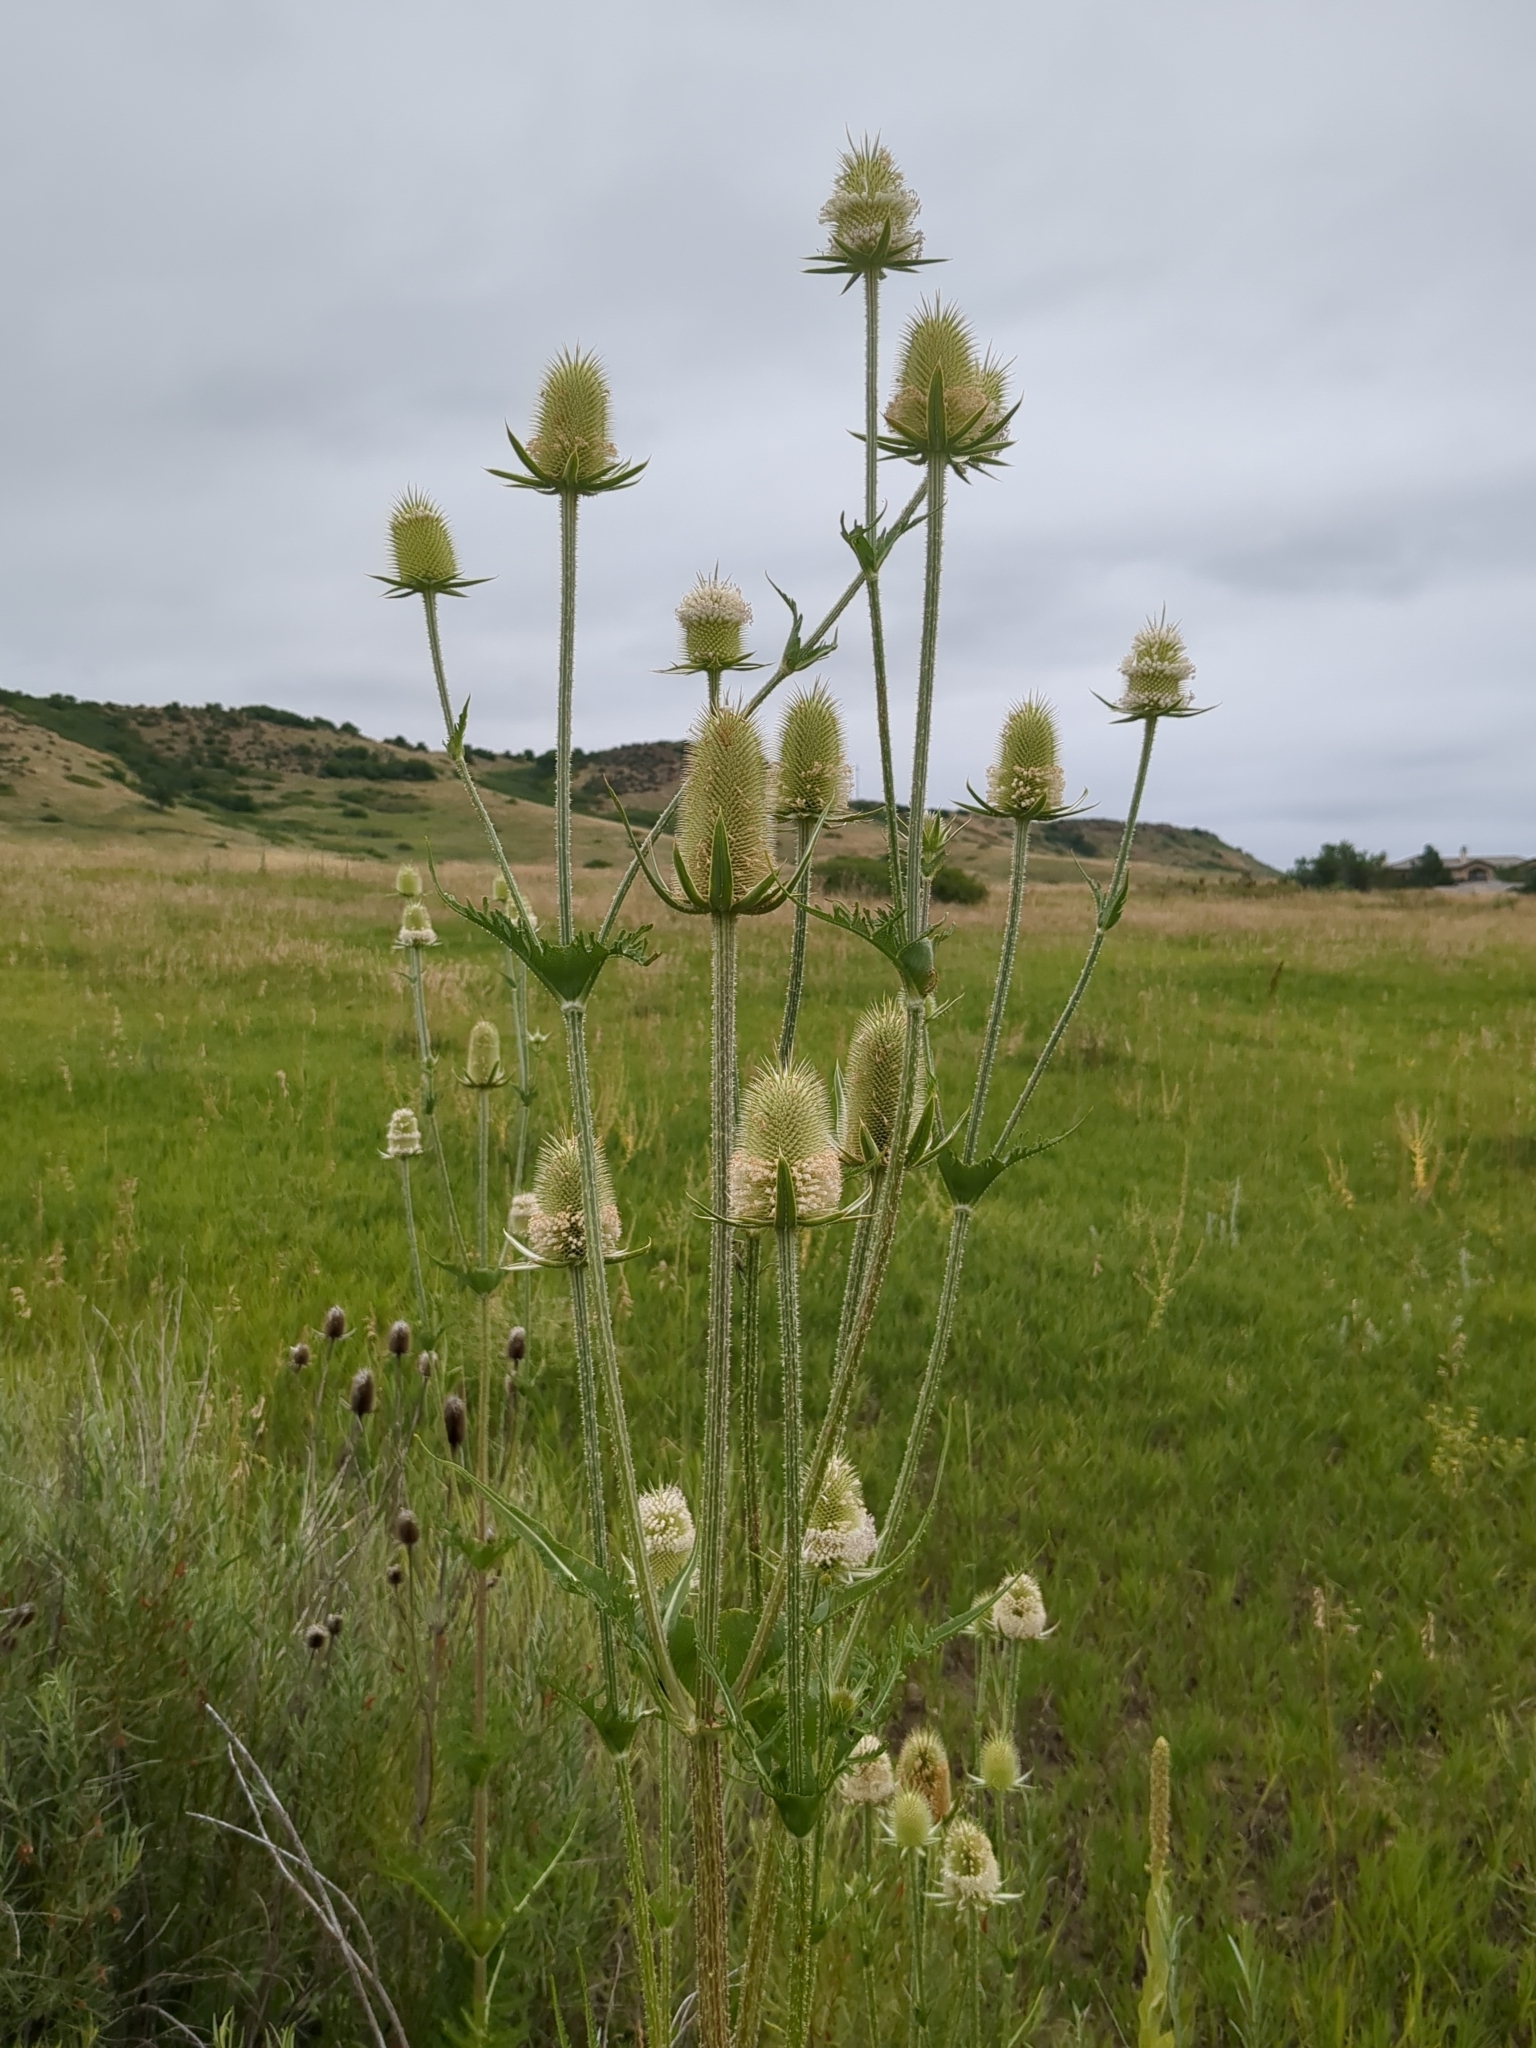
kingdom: Plantae
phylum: Tracheophyta
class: Magnoliopsida
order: Dipsacales
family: Caprifoliaceae
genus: Dipsacus
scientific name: Dipsacus laciniatus
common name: Cut-leaved teasel
